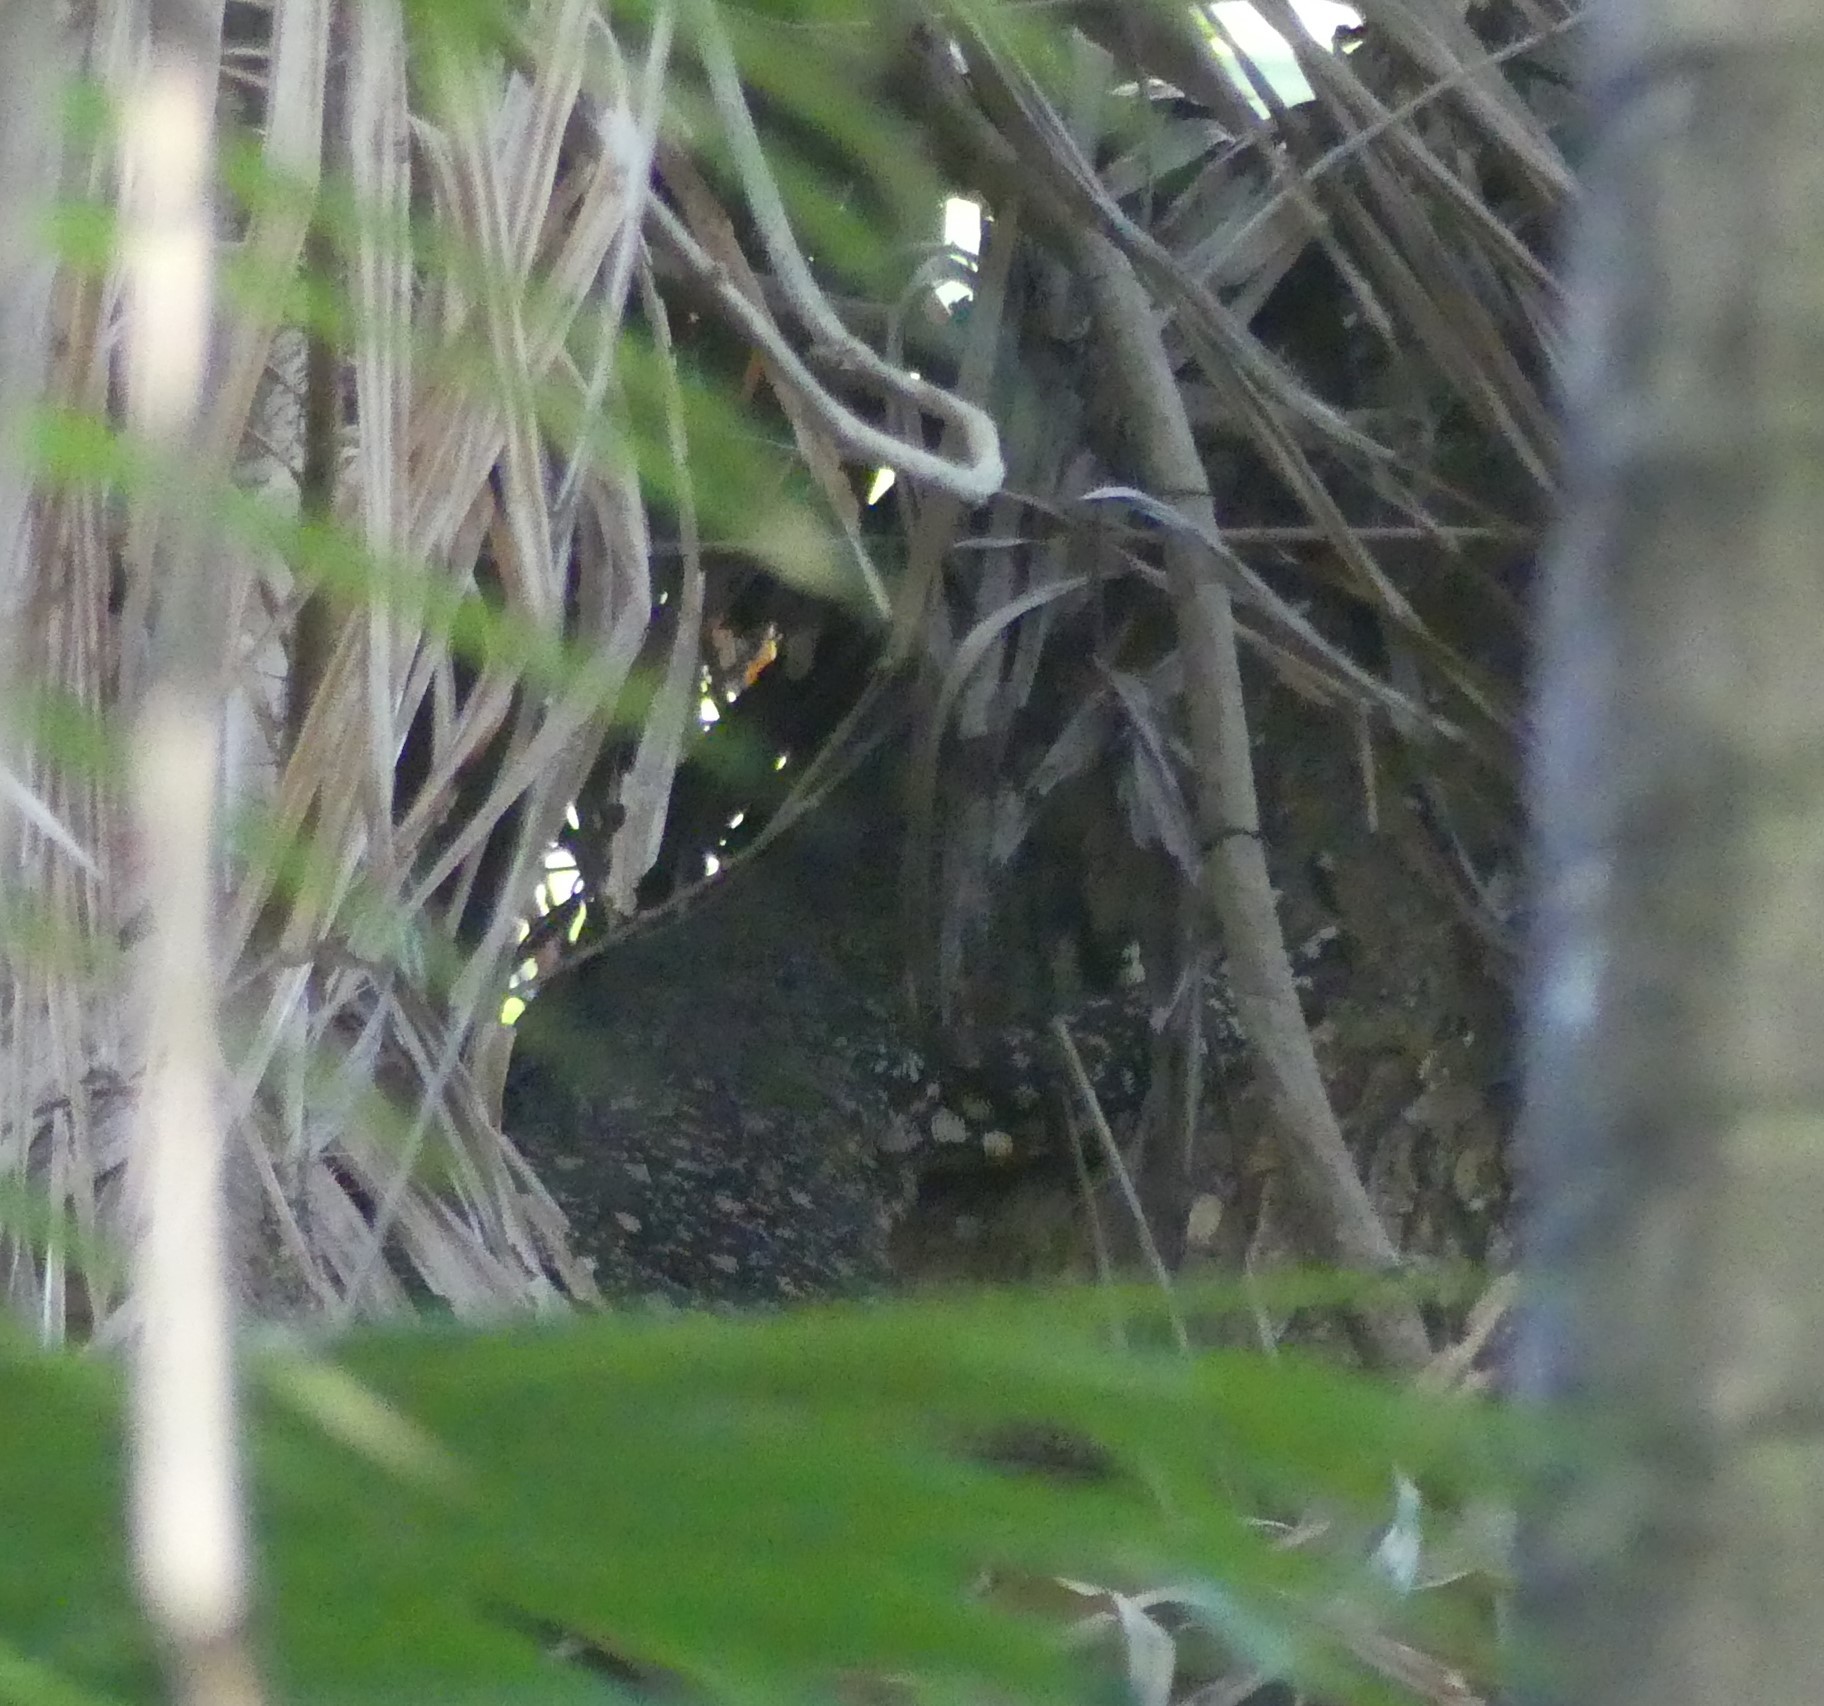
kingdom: Animalia
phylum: Chordata
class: Squamata
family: Varanidae
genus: Varanus
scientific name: Varanus varius
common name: Lace monitor
